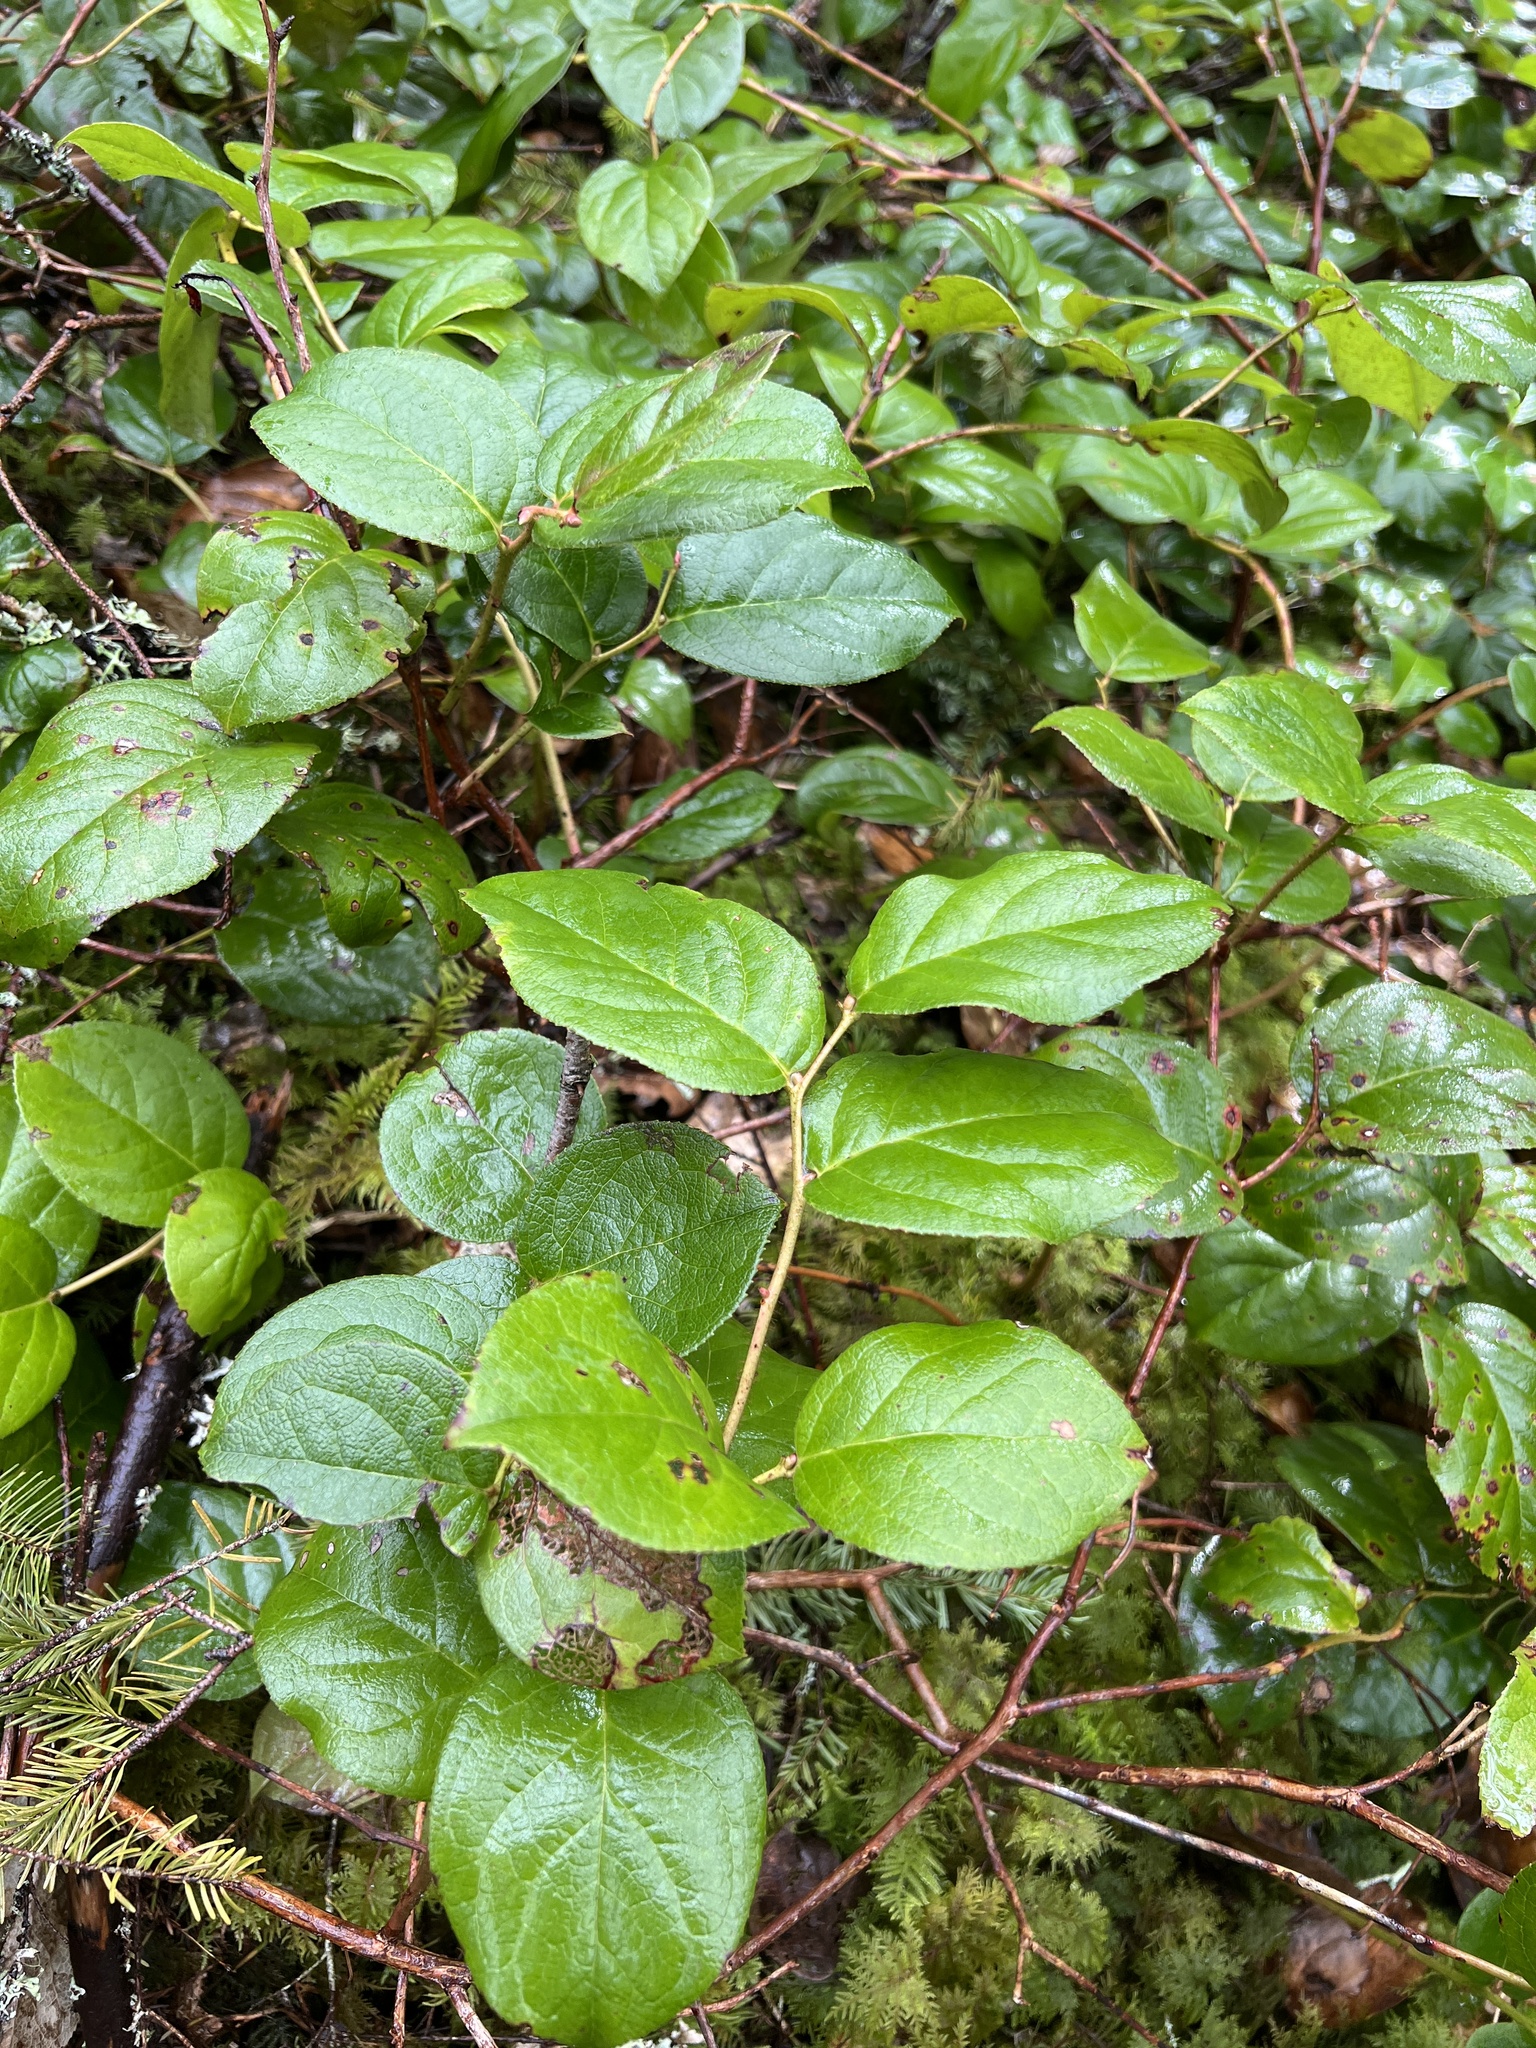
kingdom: Plantae
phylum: Tracheophyta
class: Magnoliopsida
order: Ericales
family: Ericaceae
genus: Gaultheria
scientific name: Gaultheria shallon
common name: Shallon
